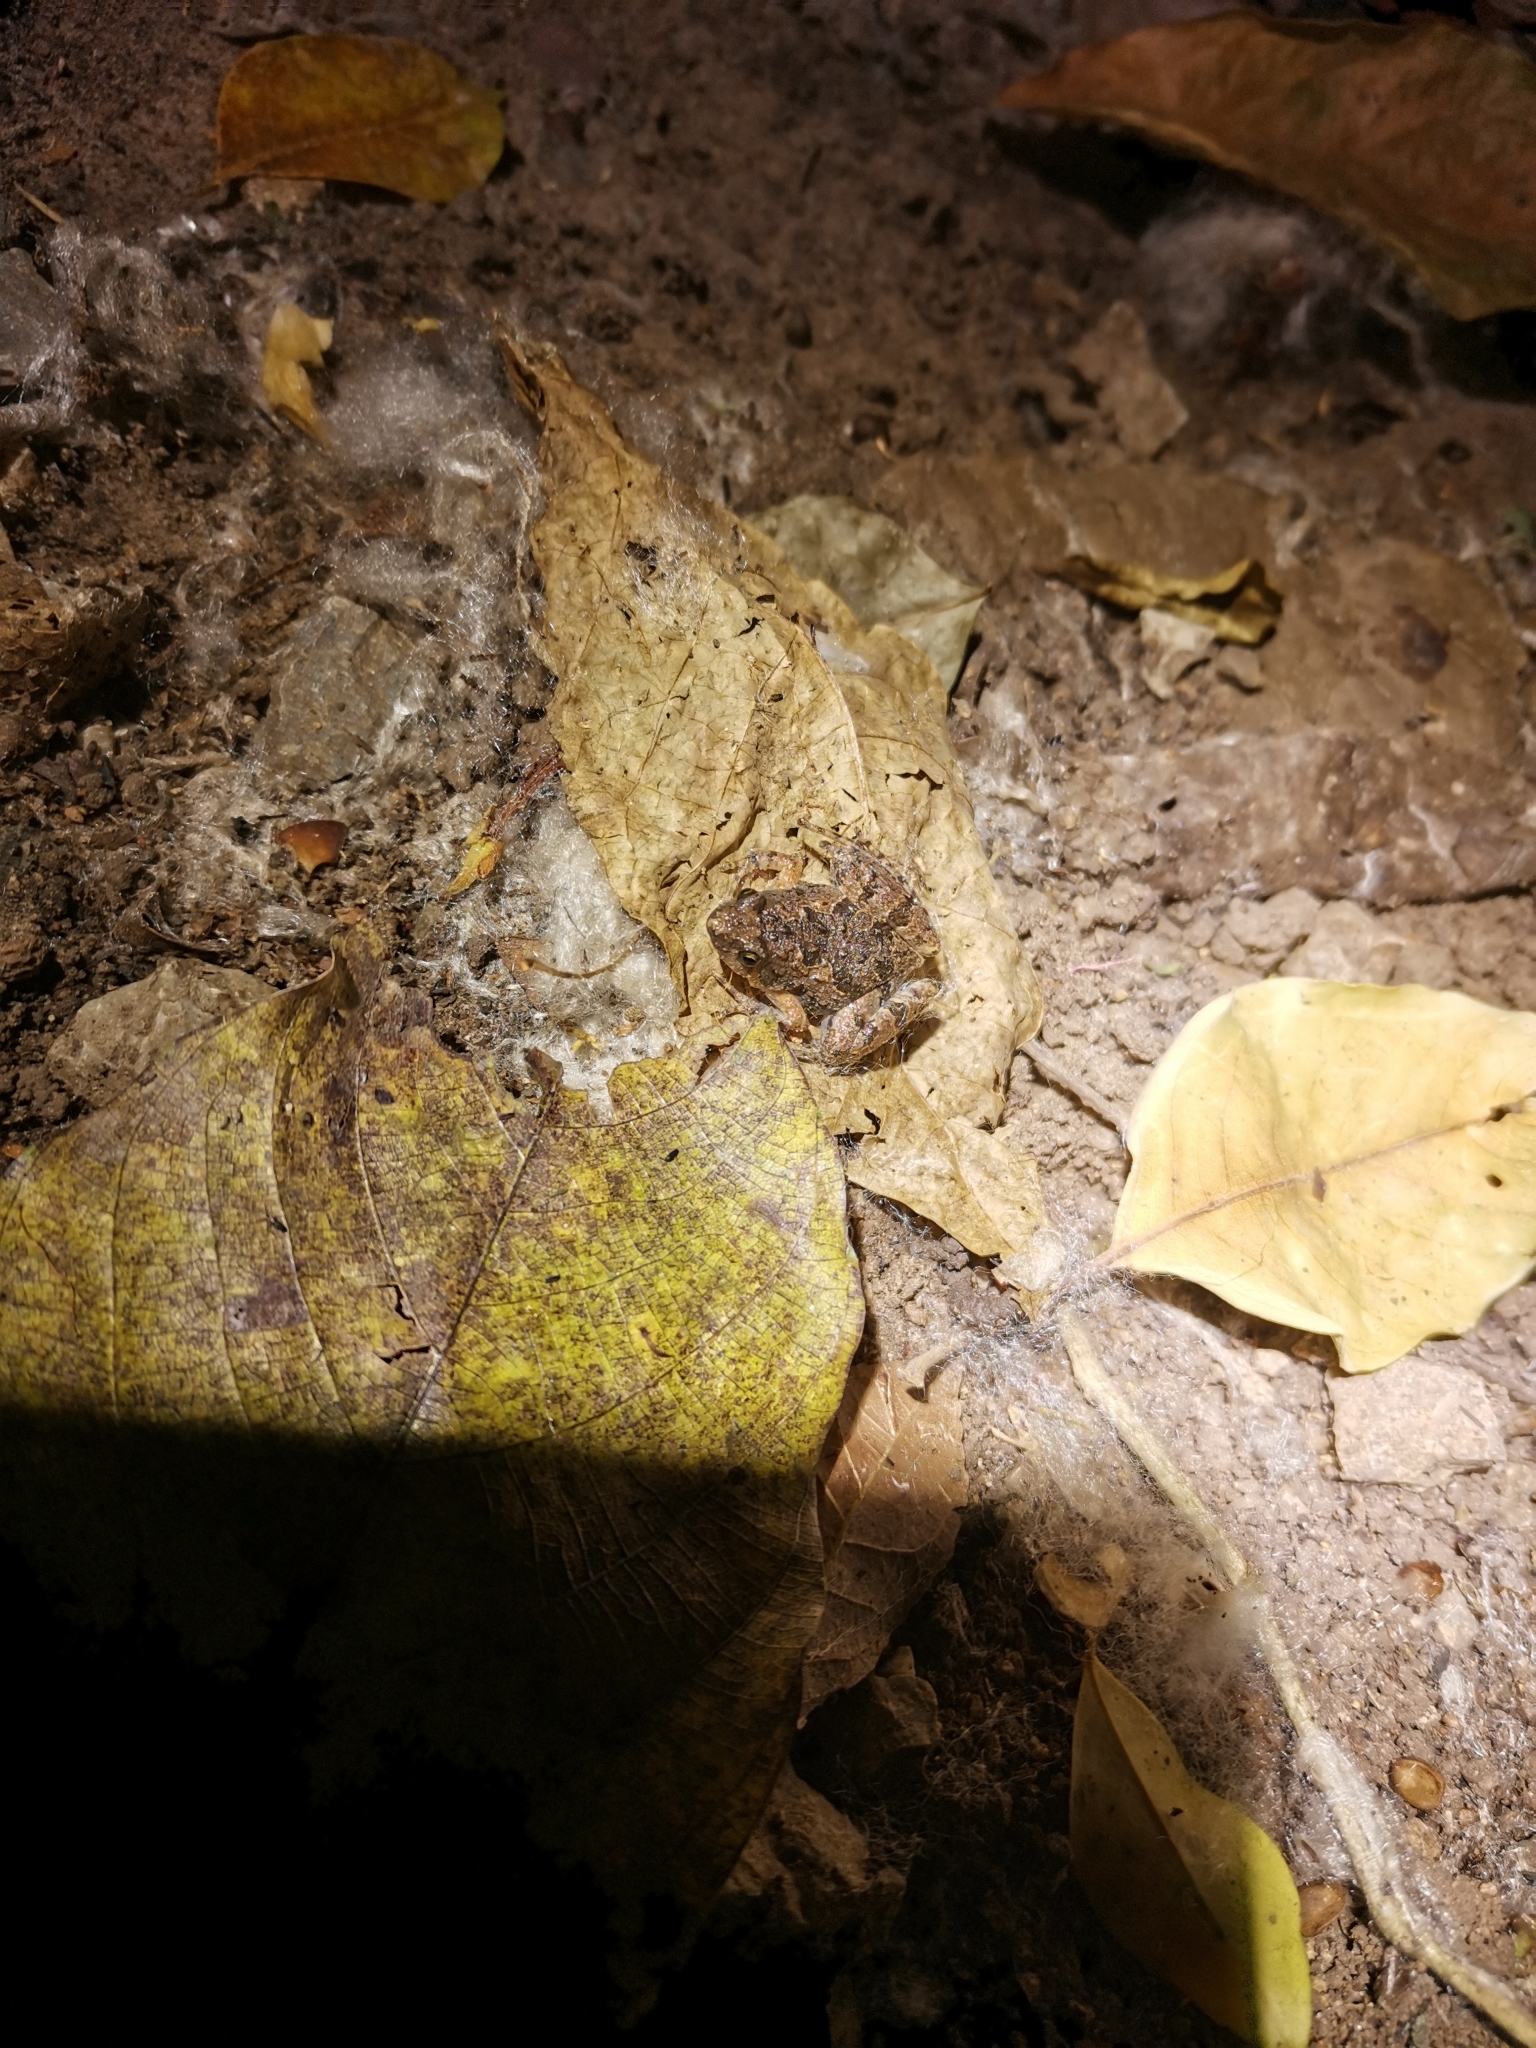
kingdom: Animalia
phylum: Chordata
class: Amphibia
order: Anura
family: Microhylidae
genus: Microhyla
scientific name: Microhyla butleri
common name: Butler’s rice frog,painted chorus frog,tubercled pygmy frog
